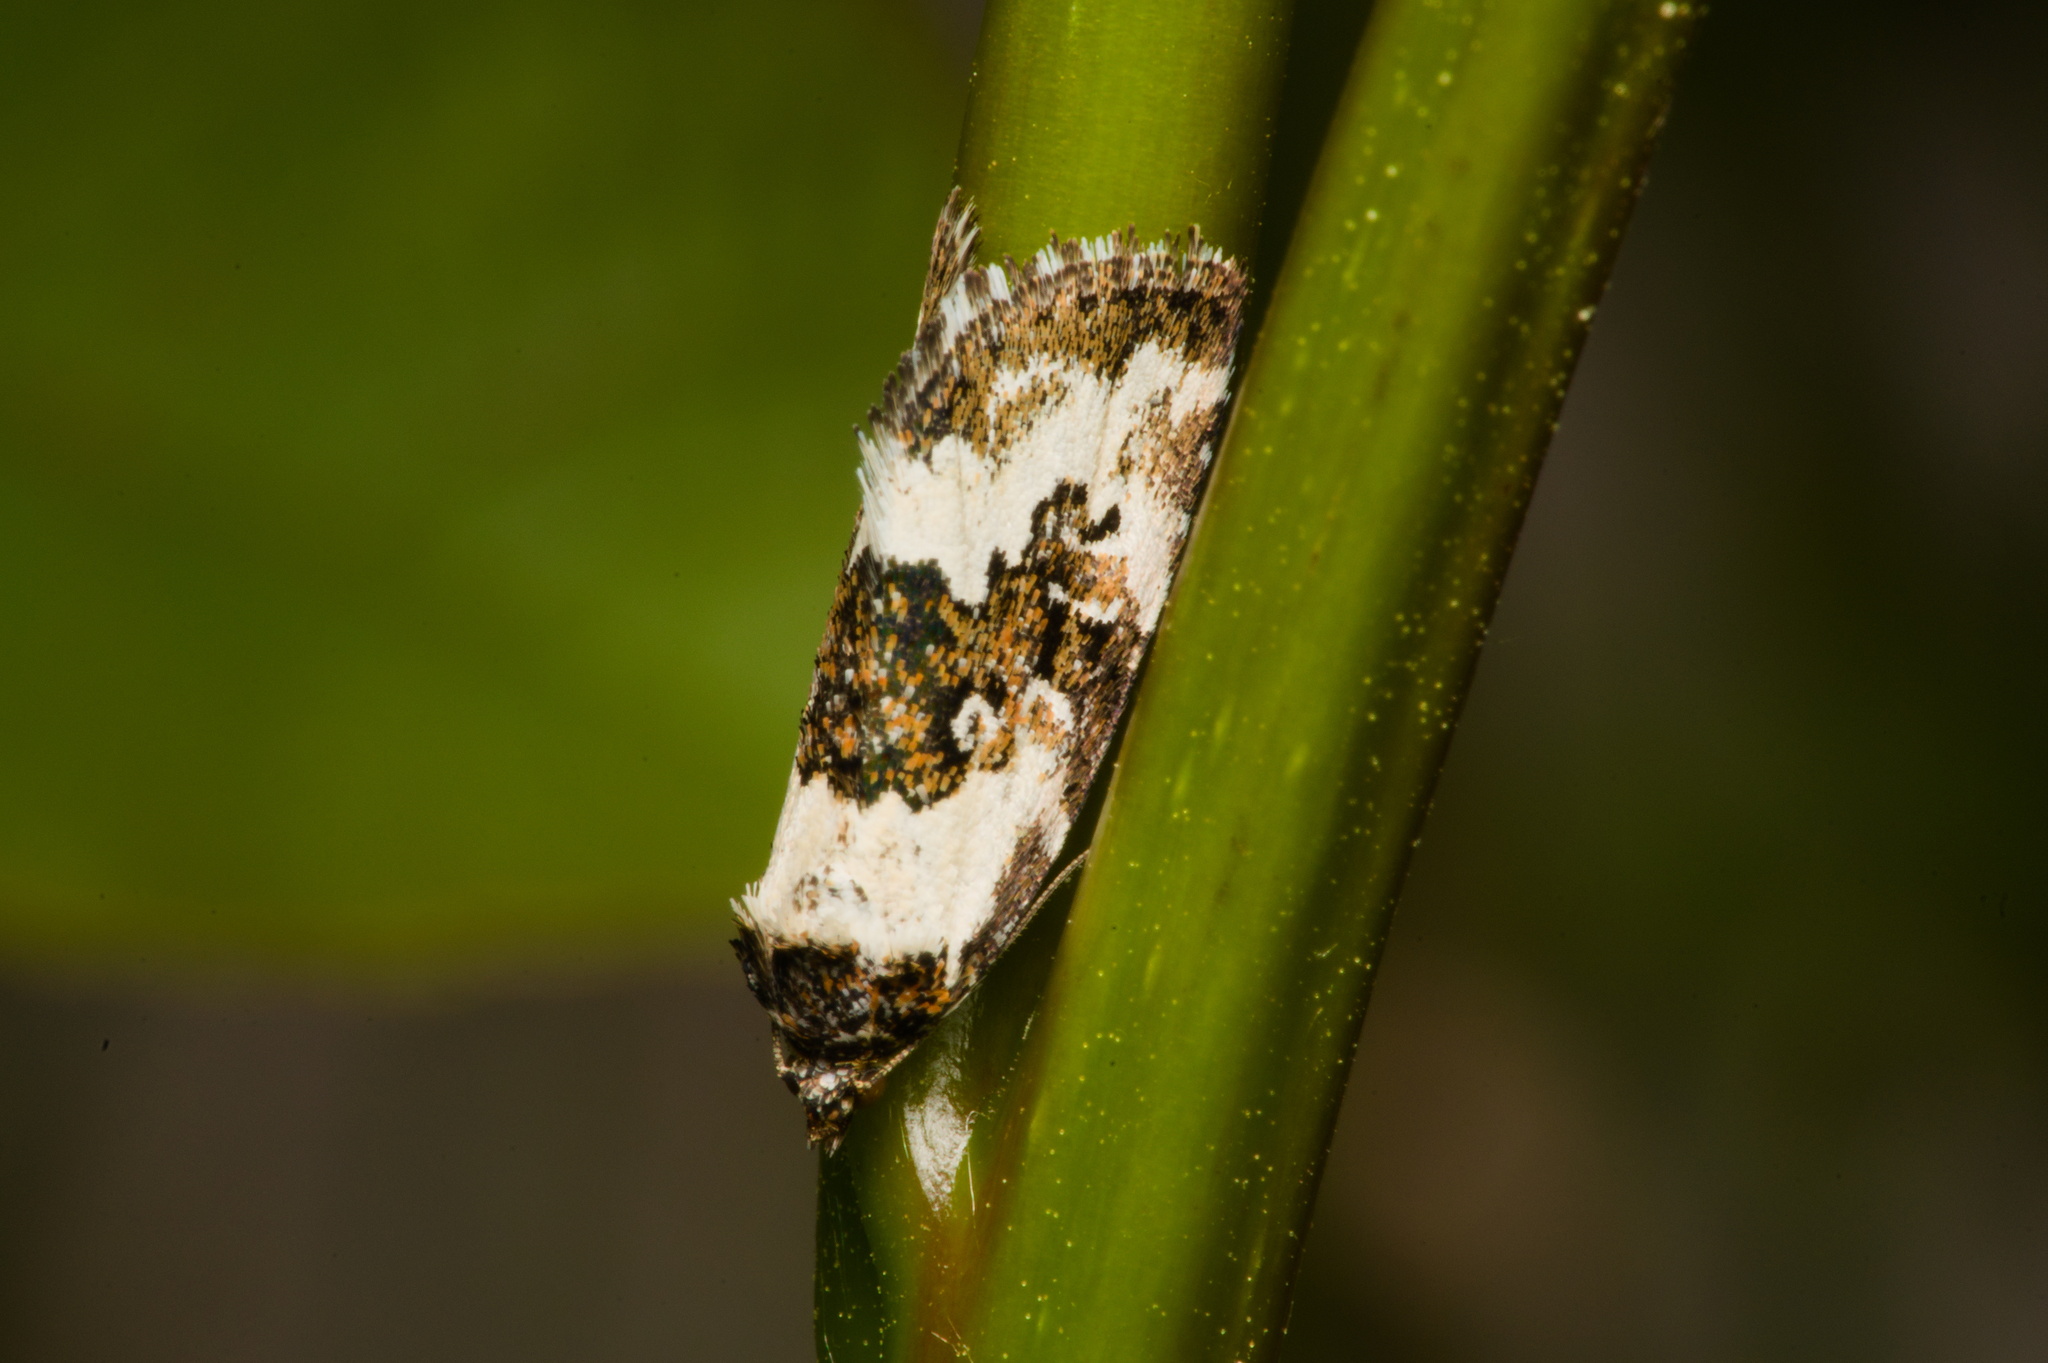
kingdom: Animalia
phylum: Arthropoda
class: Insecta
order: Lepidoptera
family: Noctuidae
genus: Deltote
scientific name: Deltote deceptoria
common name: Pretty marbled
